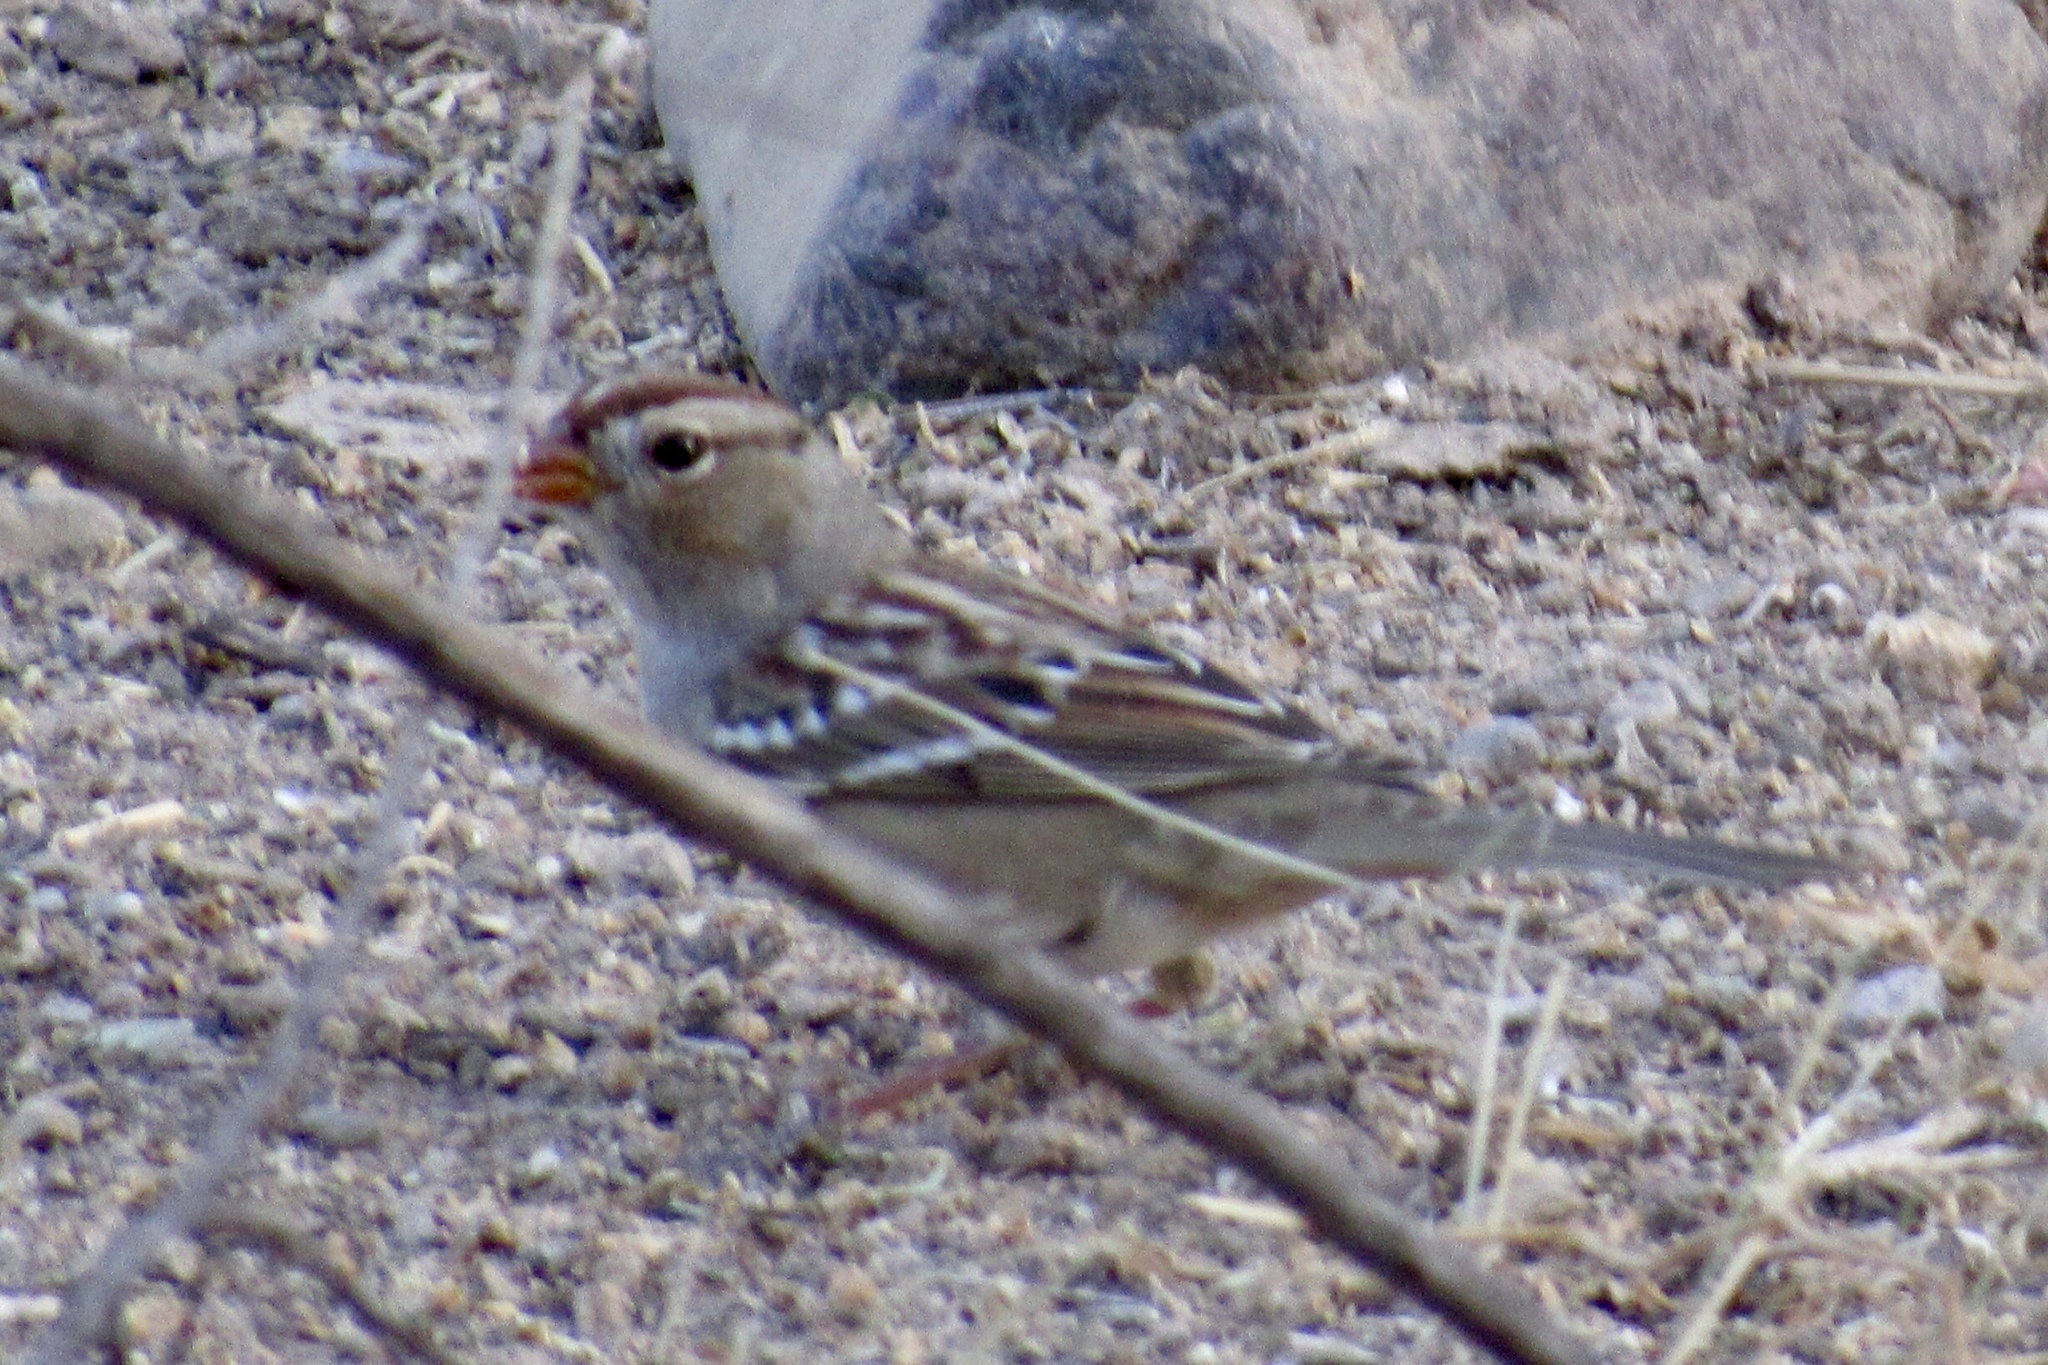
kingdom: Animalia
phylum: Chordata
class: Aves
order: Passeriformes
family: Passerellidae
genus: Zonotrichia
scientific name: Zonotrichia leucophrys
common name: White-crowned sparrow
